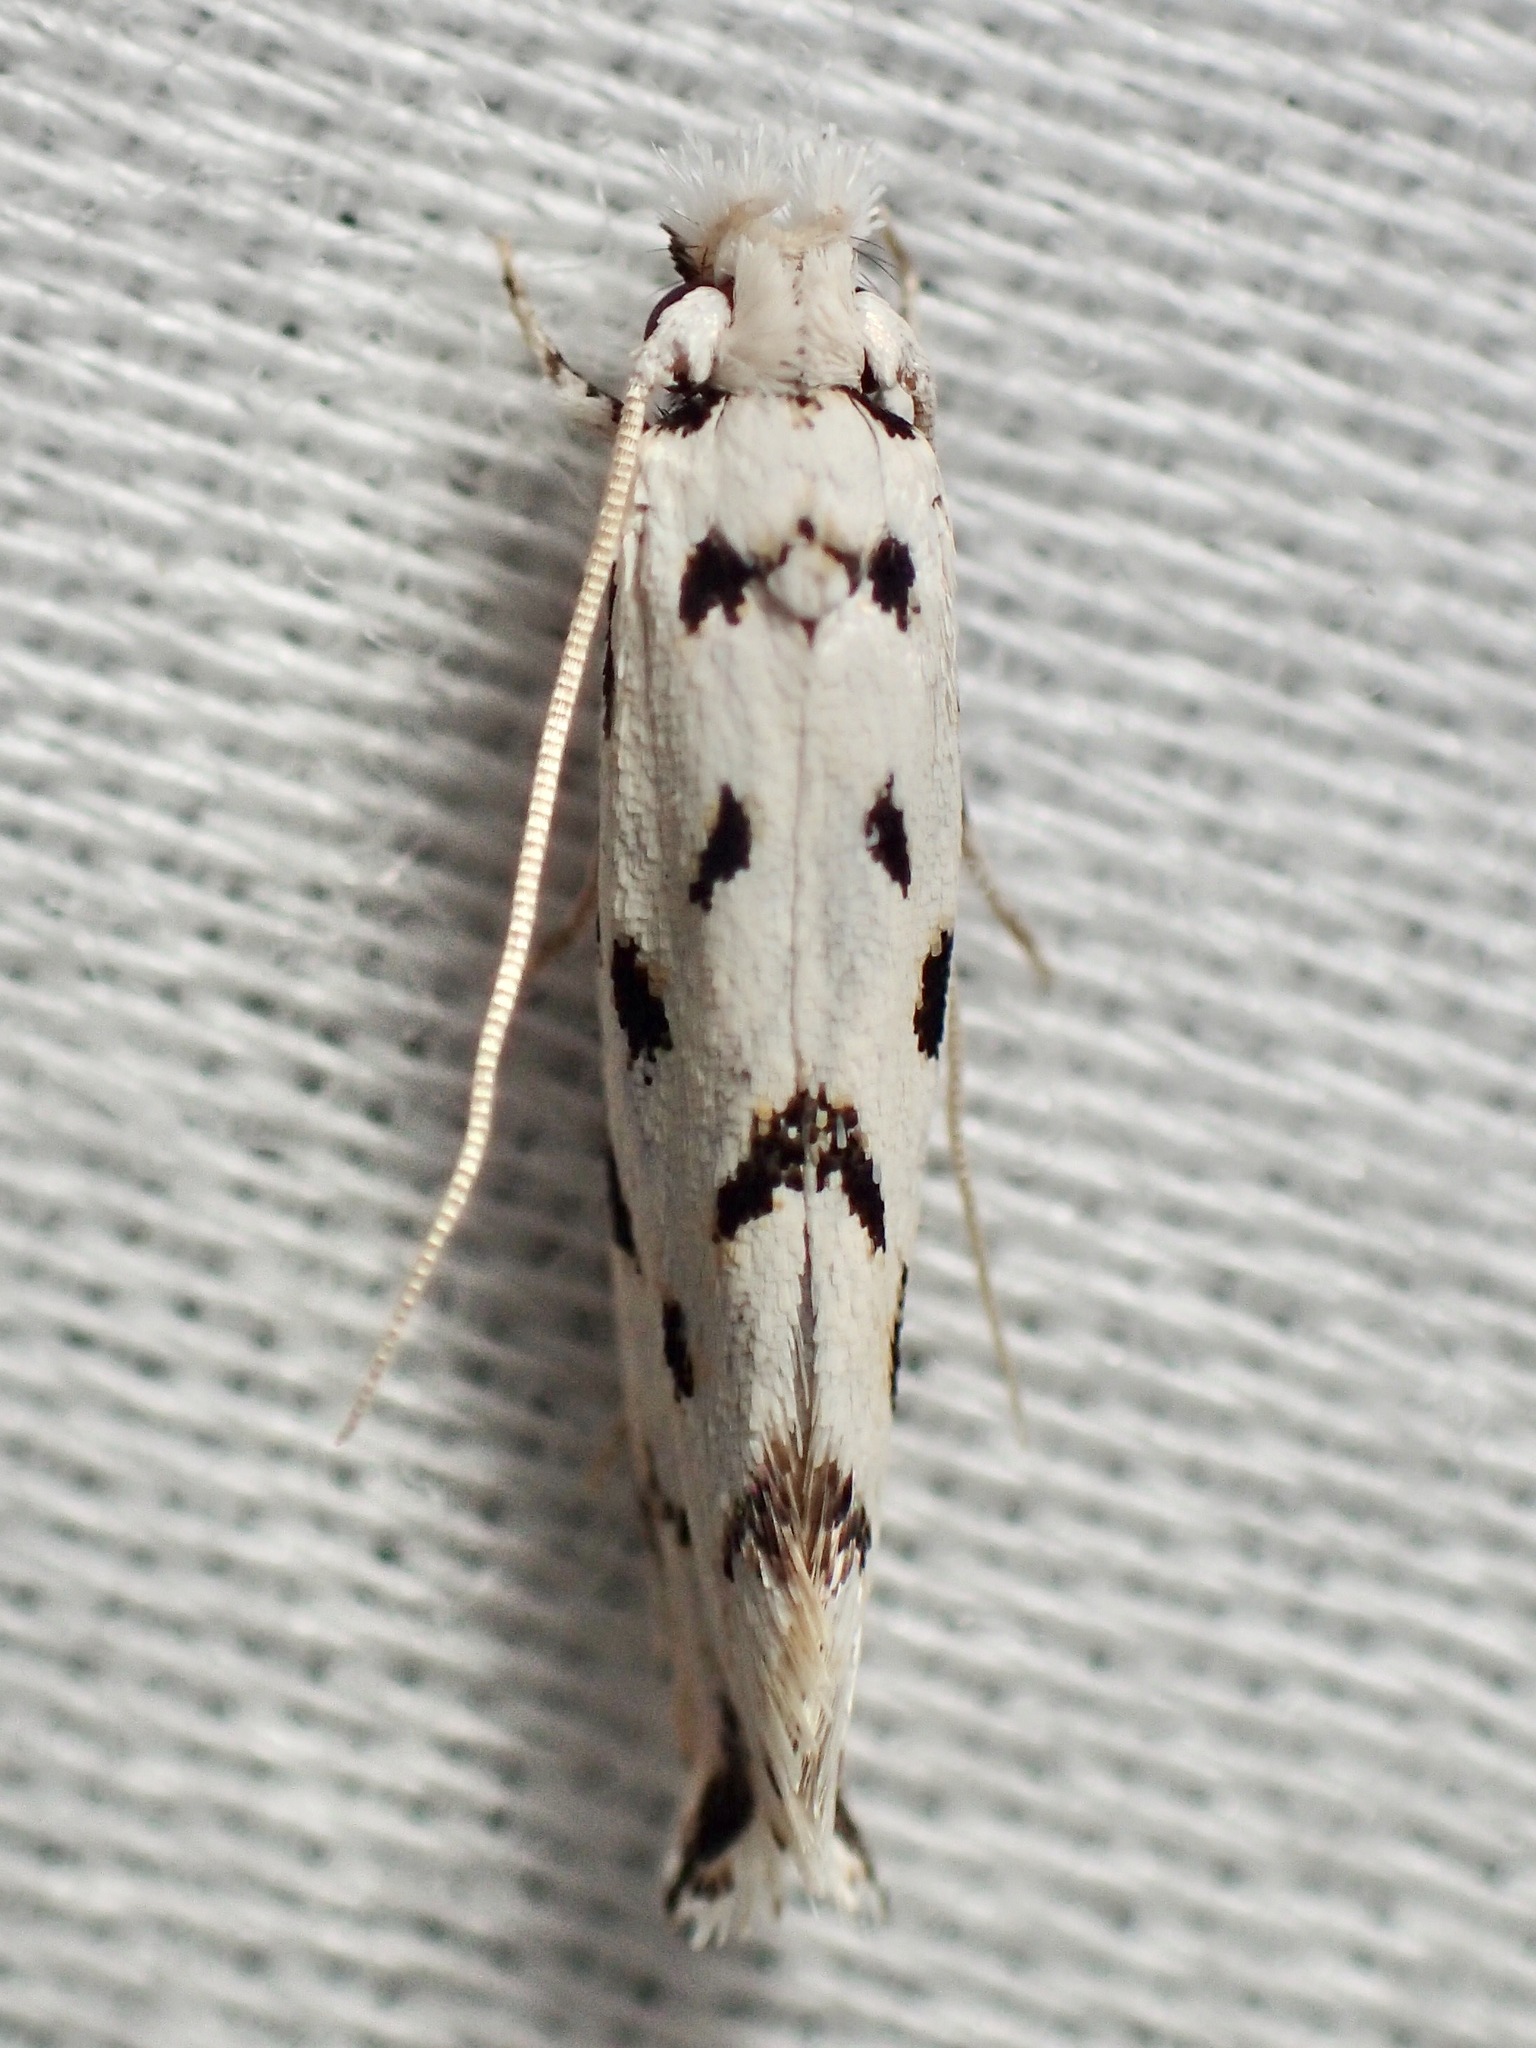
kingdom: Animalia
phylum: Arthropoda
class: Insecta
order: Lepidoptera
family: Tineidae
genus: Erechthias
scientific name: Erechthias simulans
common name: Fungus moth
